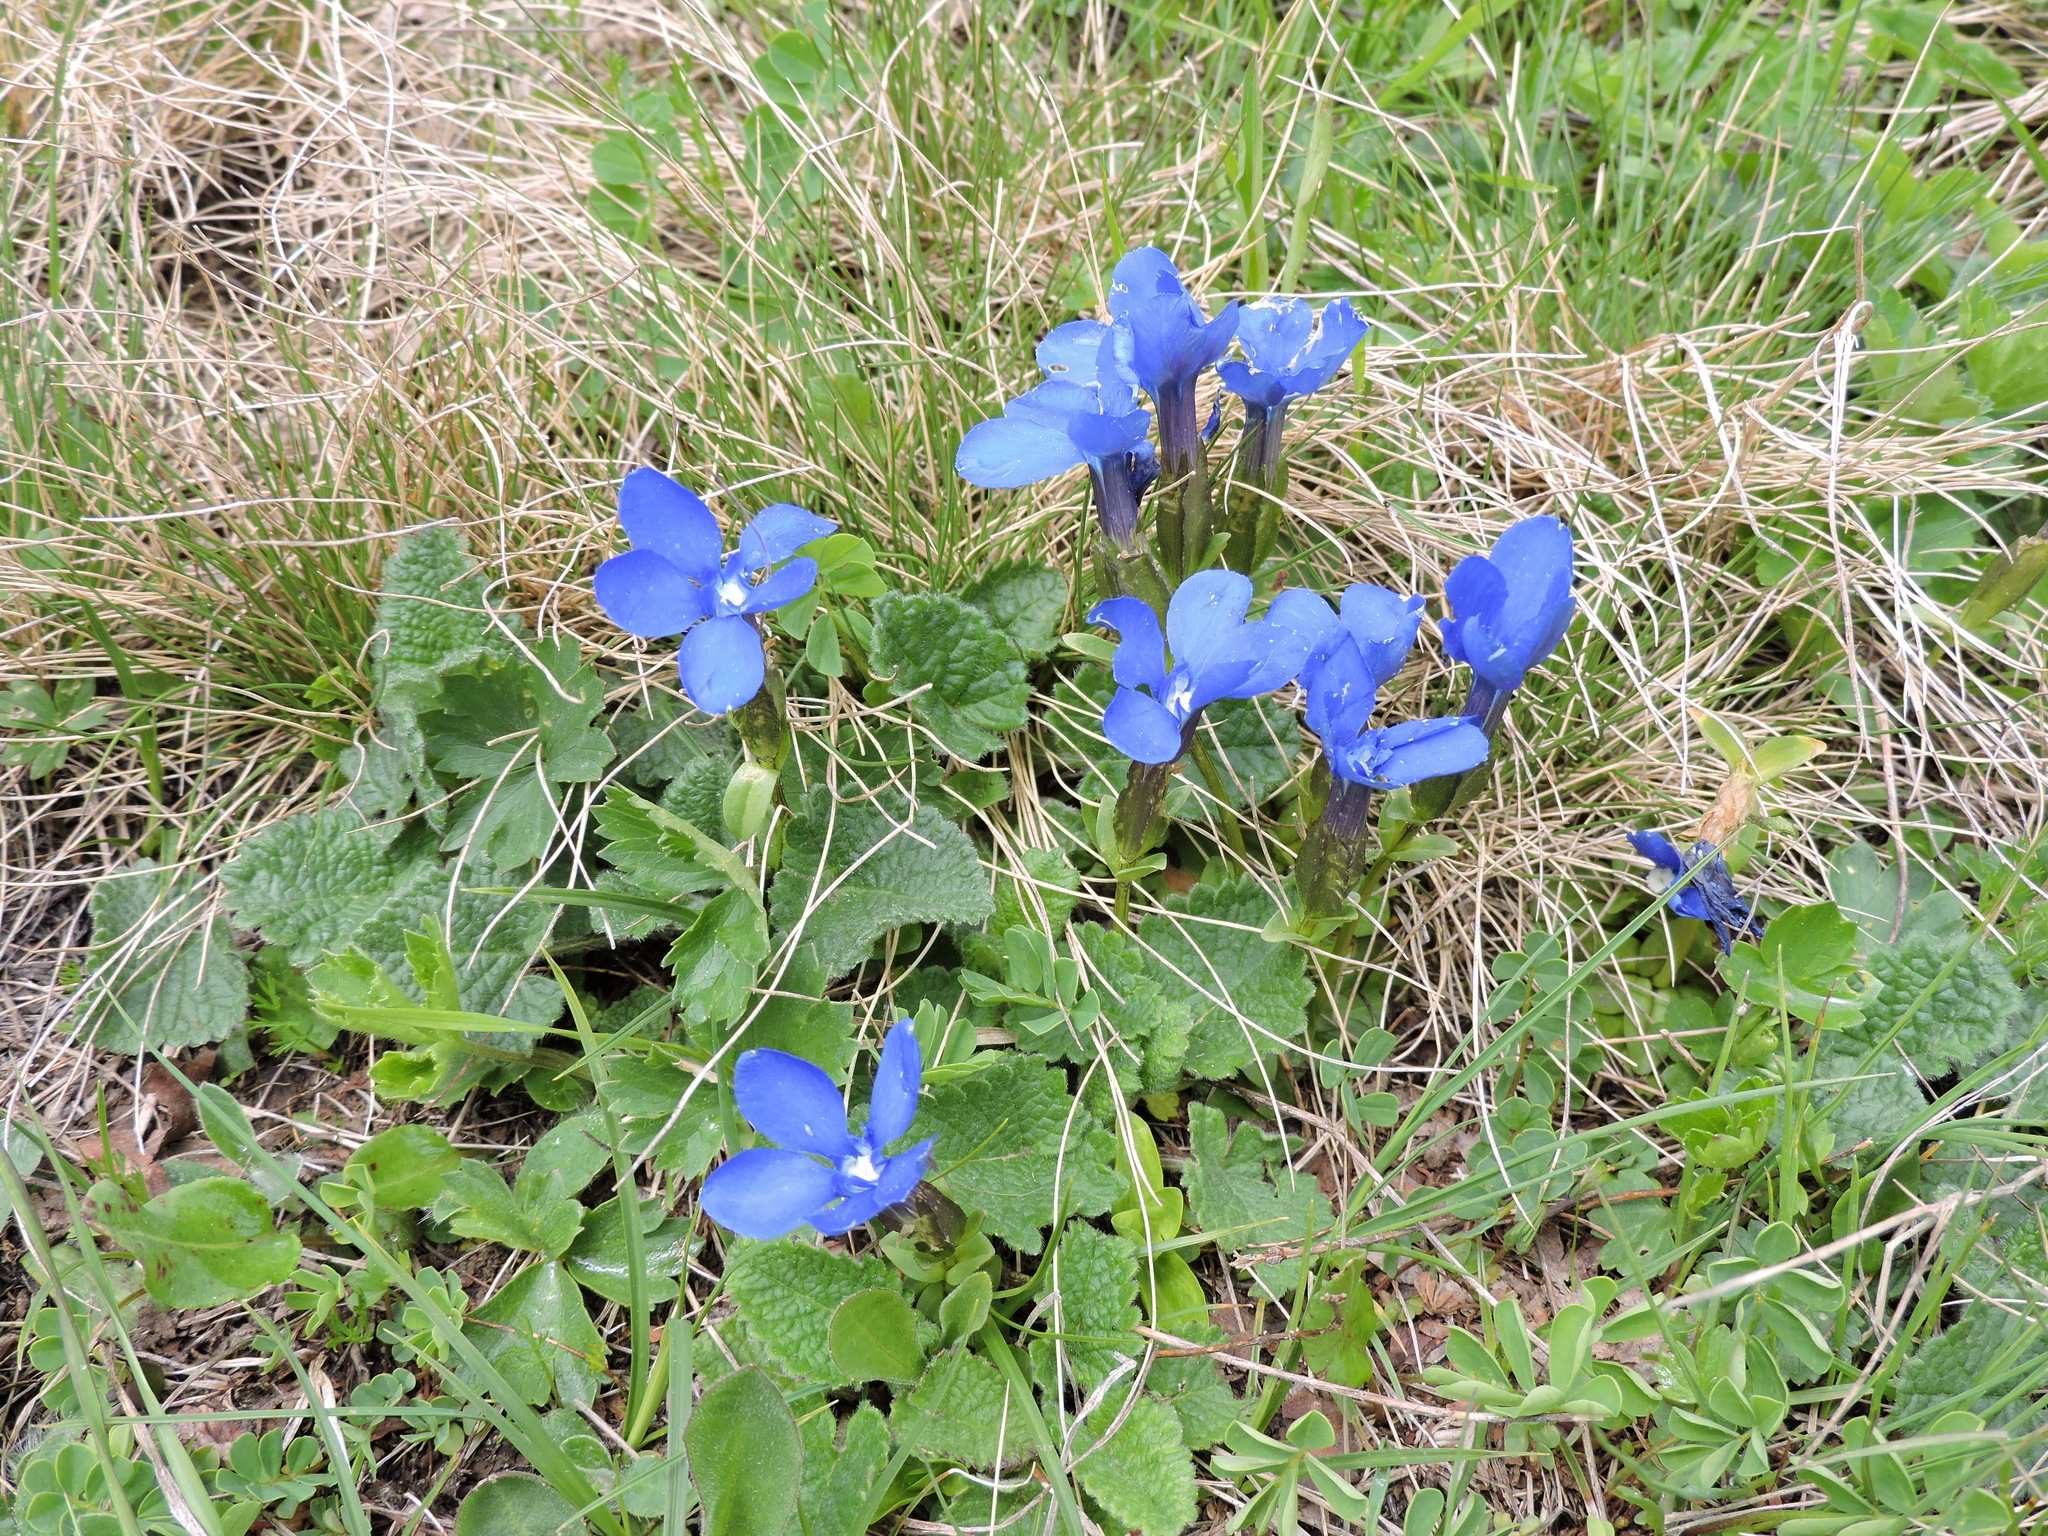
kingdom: Plantae
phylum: Tracheophyta
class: Magnoliopsida
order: Gentianales
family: Gentianaceae
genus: Gentiana
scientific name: Gentiana verna
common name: Spring gentian
